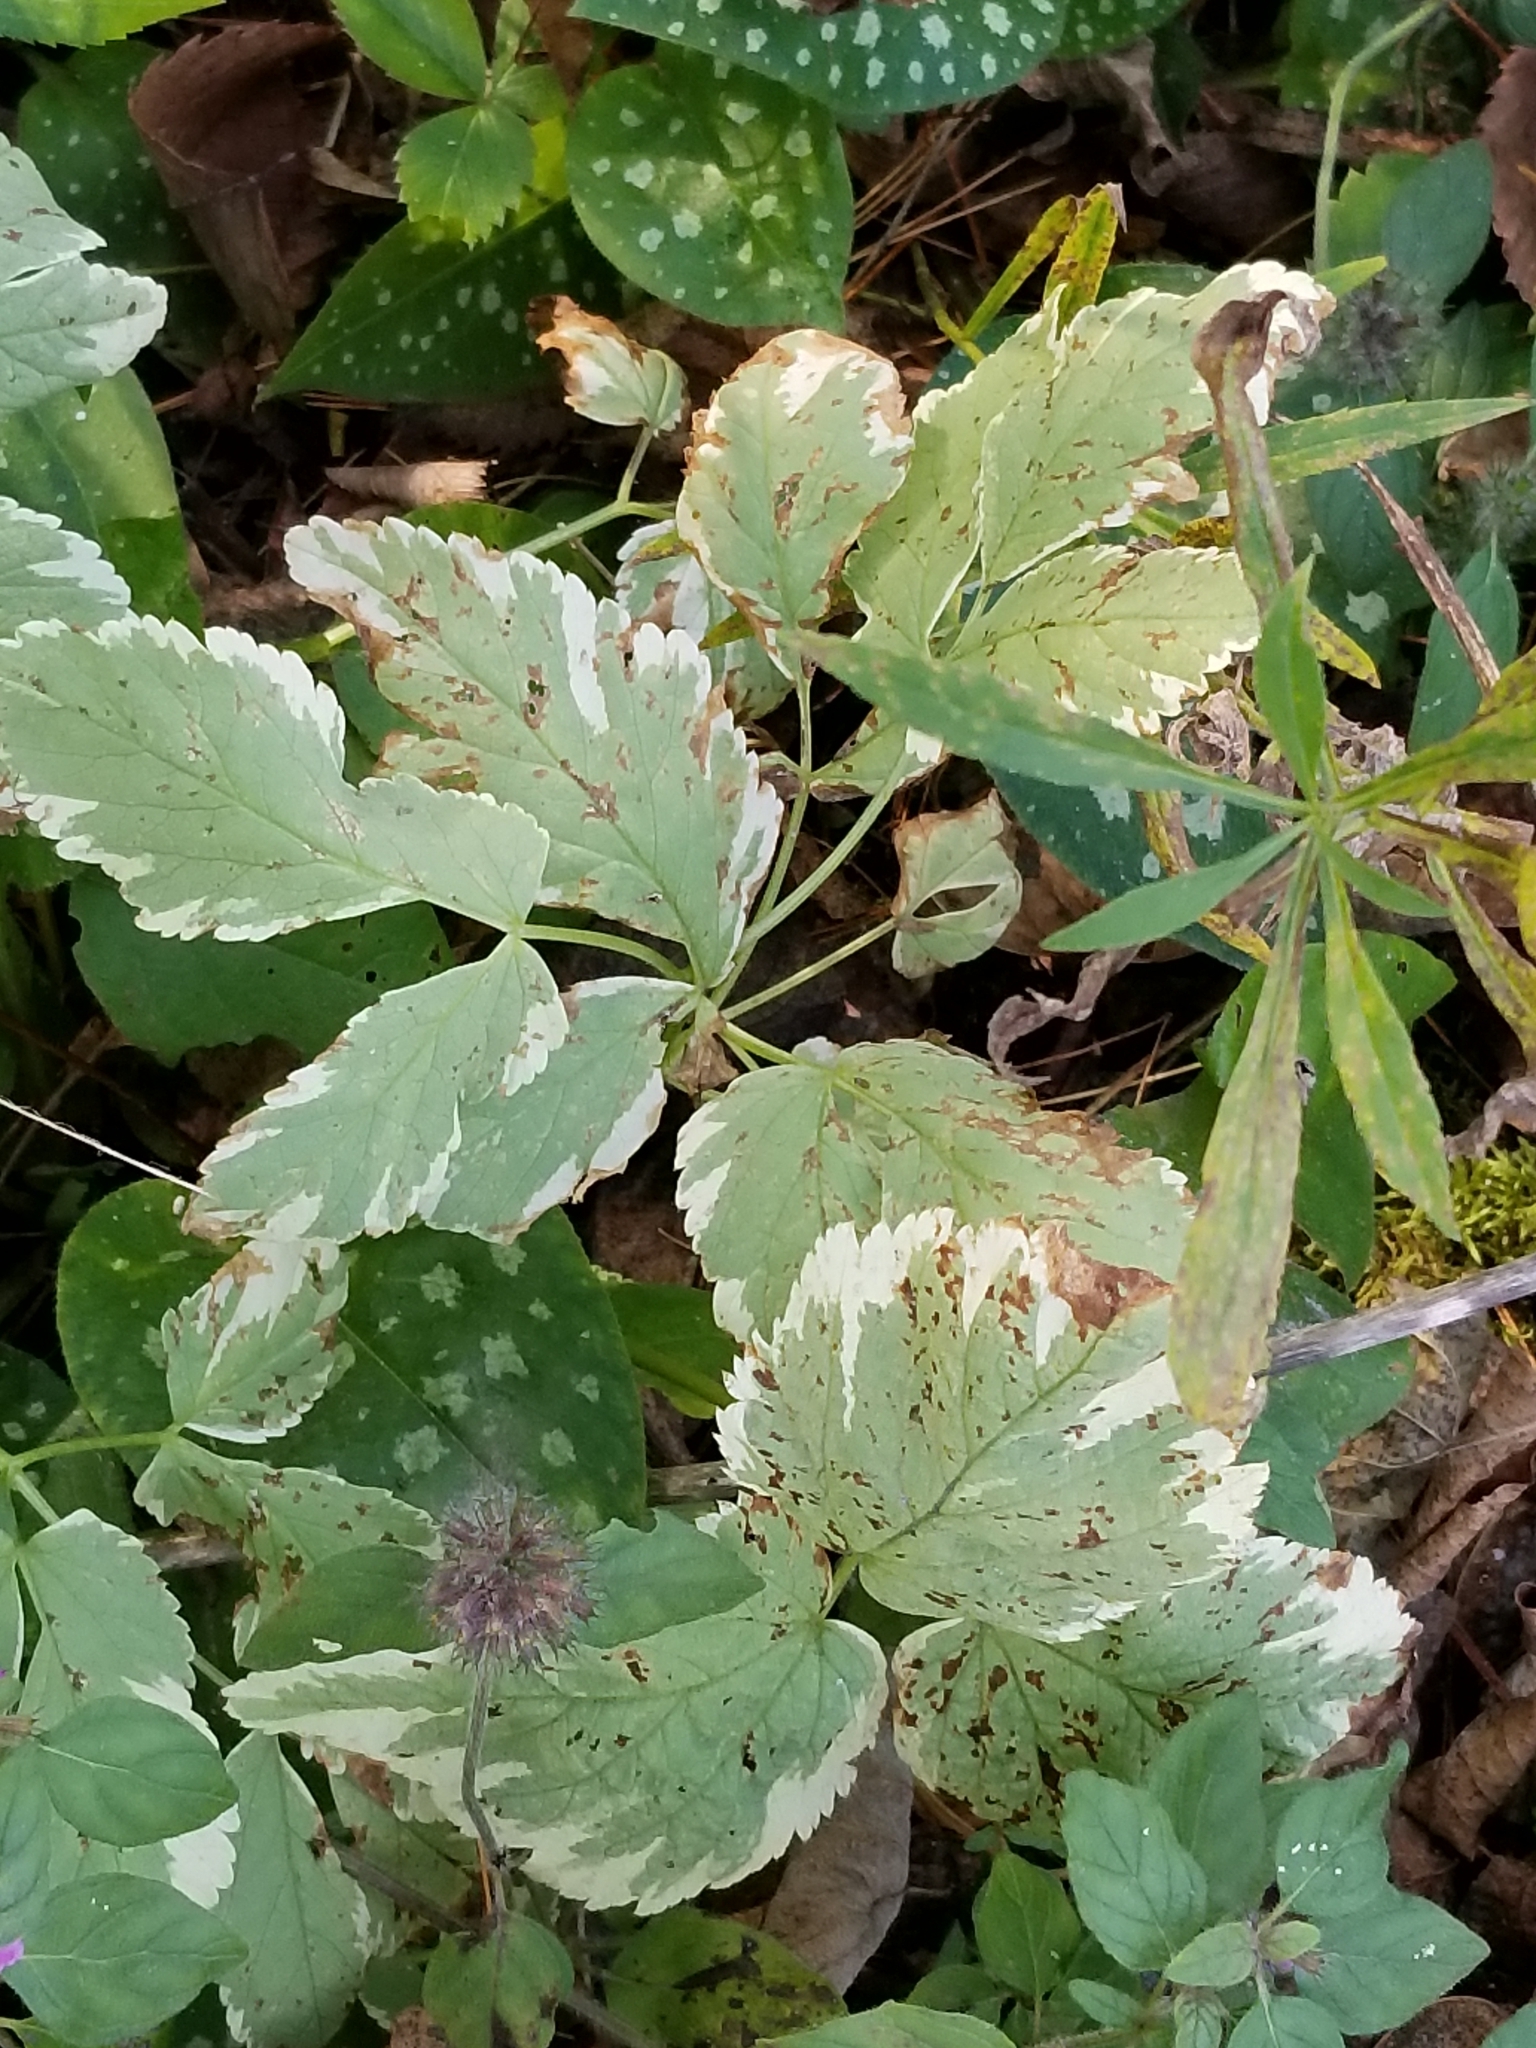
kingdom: Plantae
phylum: Tracheophyta
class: Magnoliopsida
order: Apiales
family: Apiaceae
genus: Aegopodium
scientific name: Aegopodium podagraria
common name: Ground-elder
